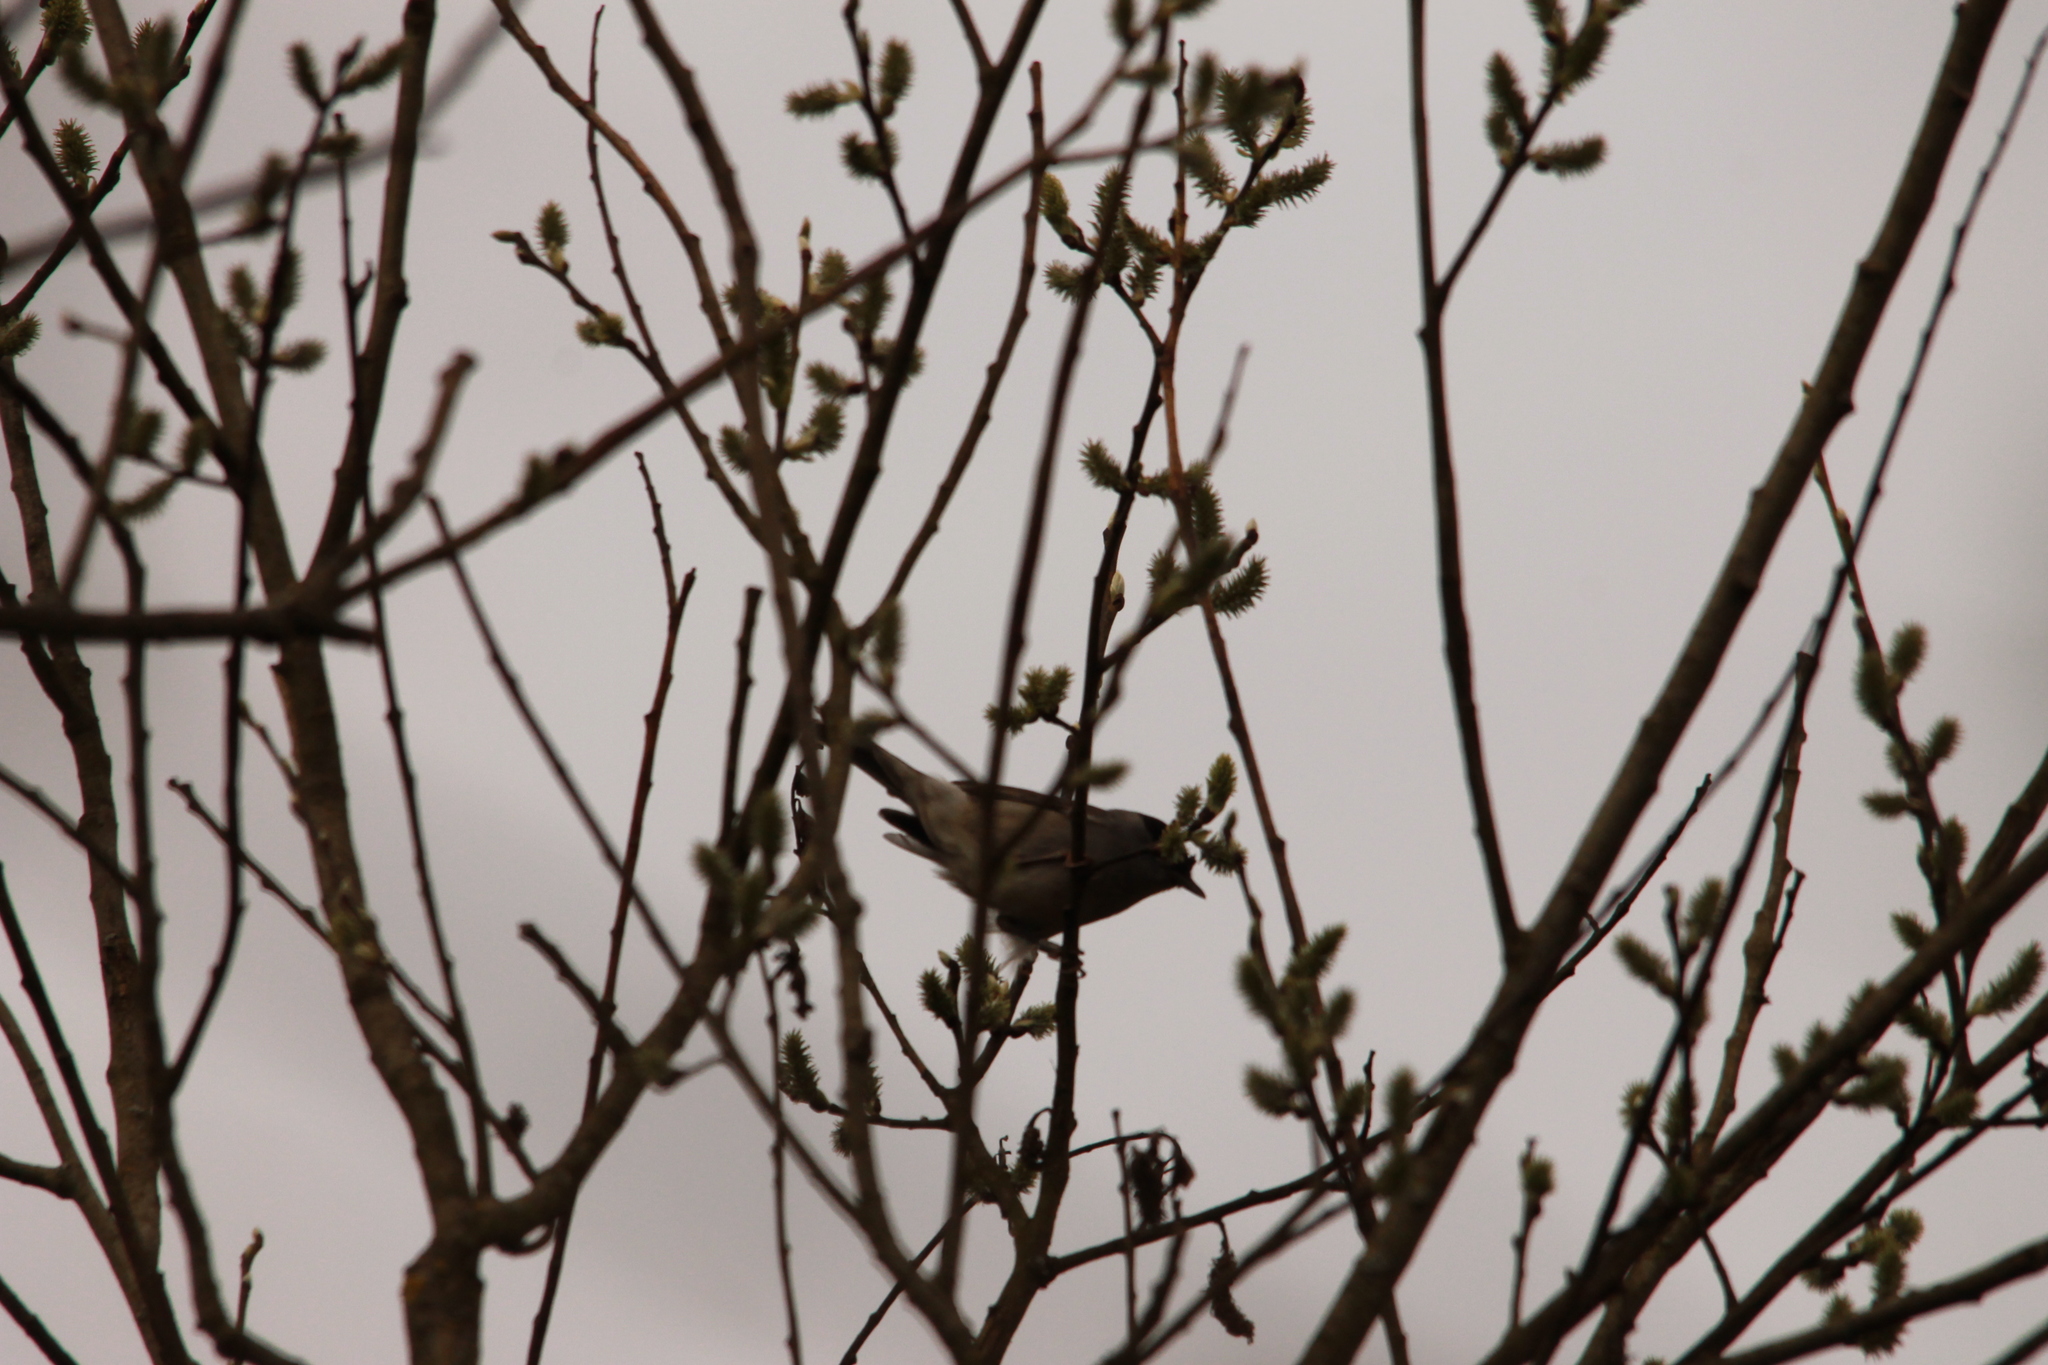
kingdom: Animalia
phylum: Chordata
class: Aves
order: Passeriformes
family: Sylviidae
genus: Sylvia
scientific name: Sylvia atricapilla
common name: Eurasian blackcap
